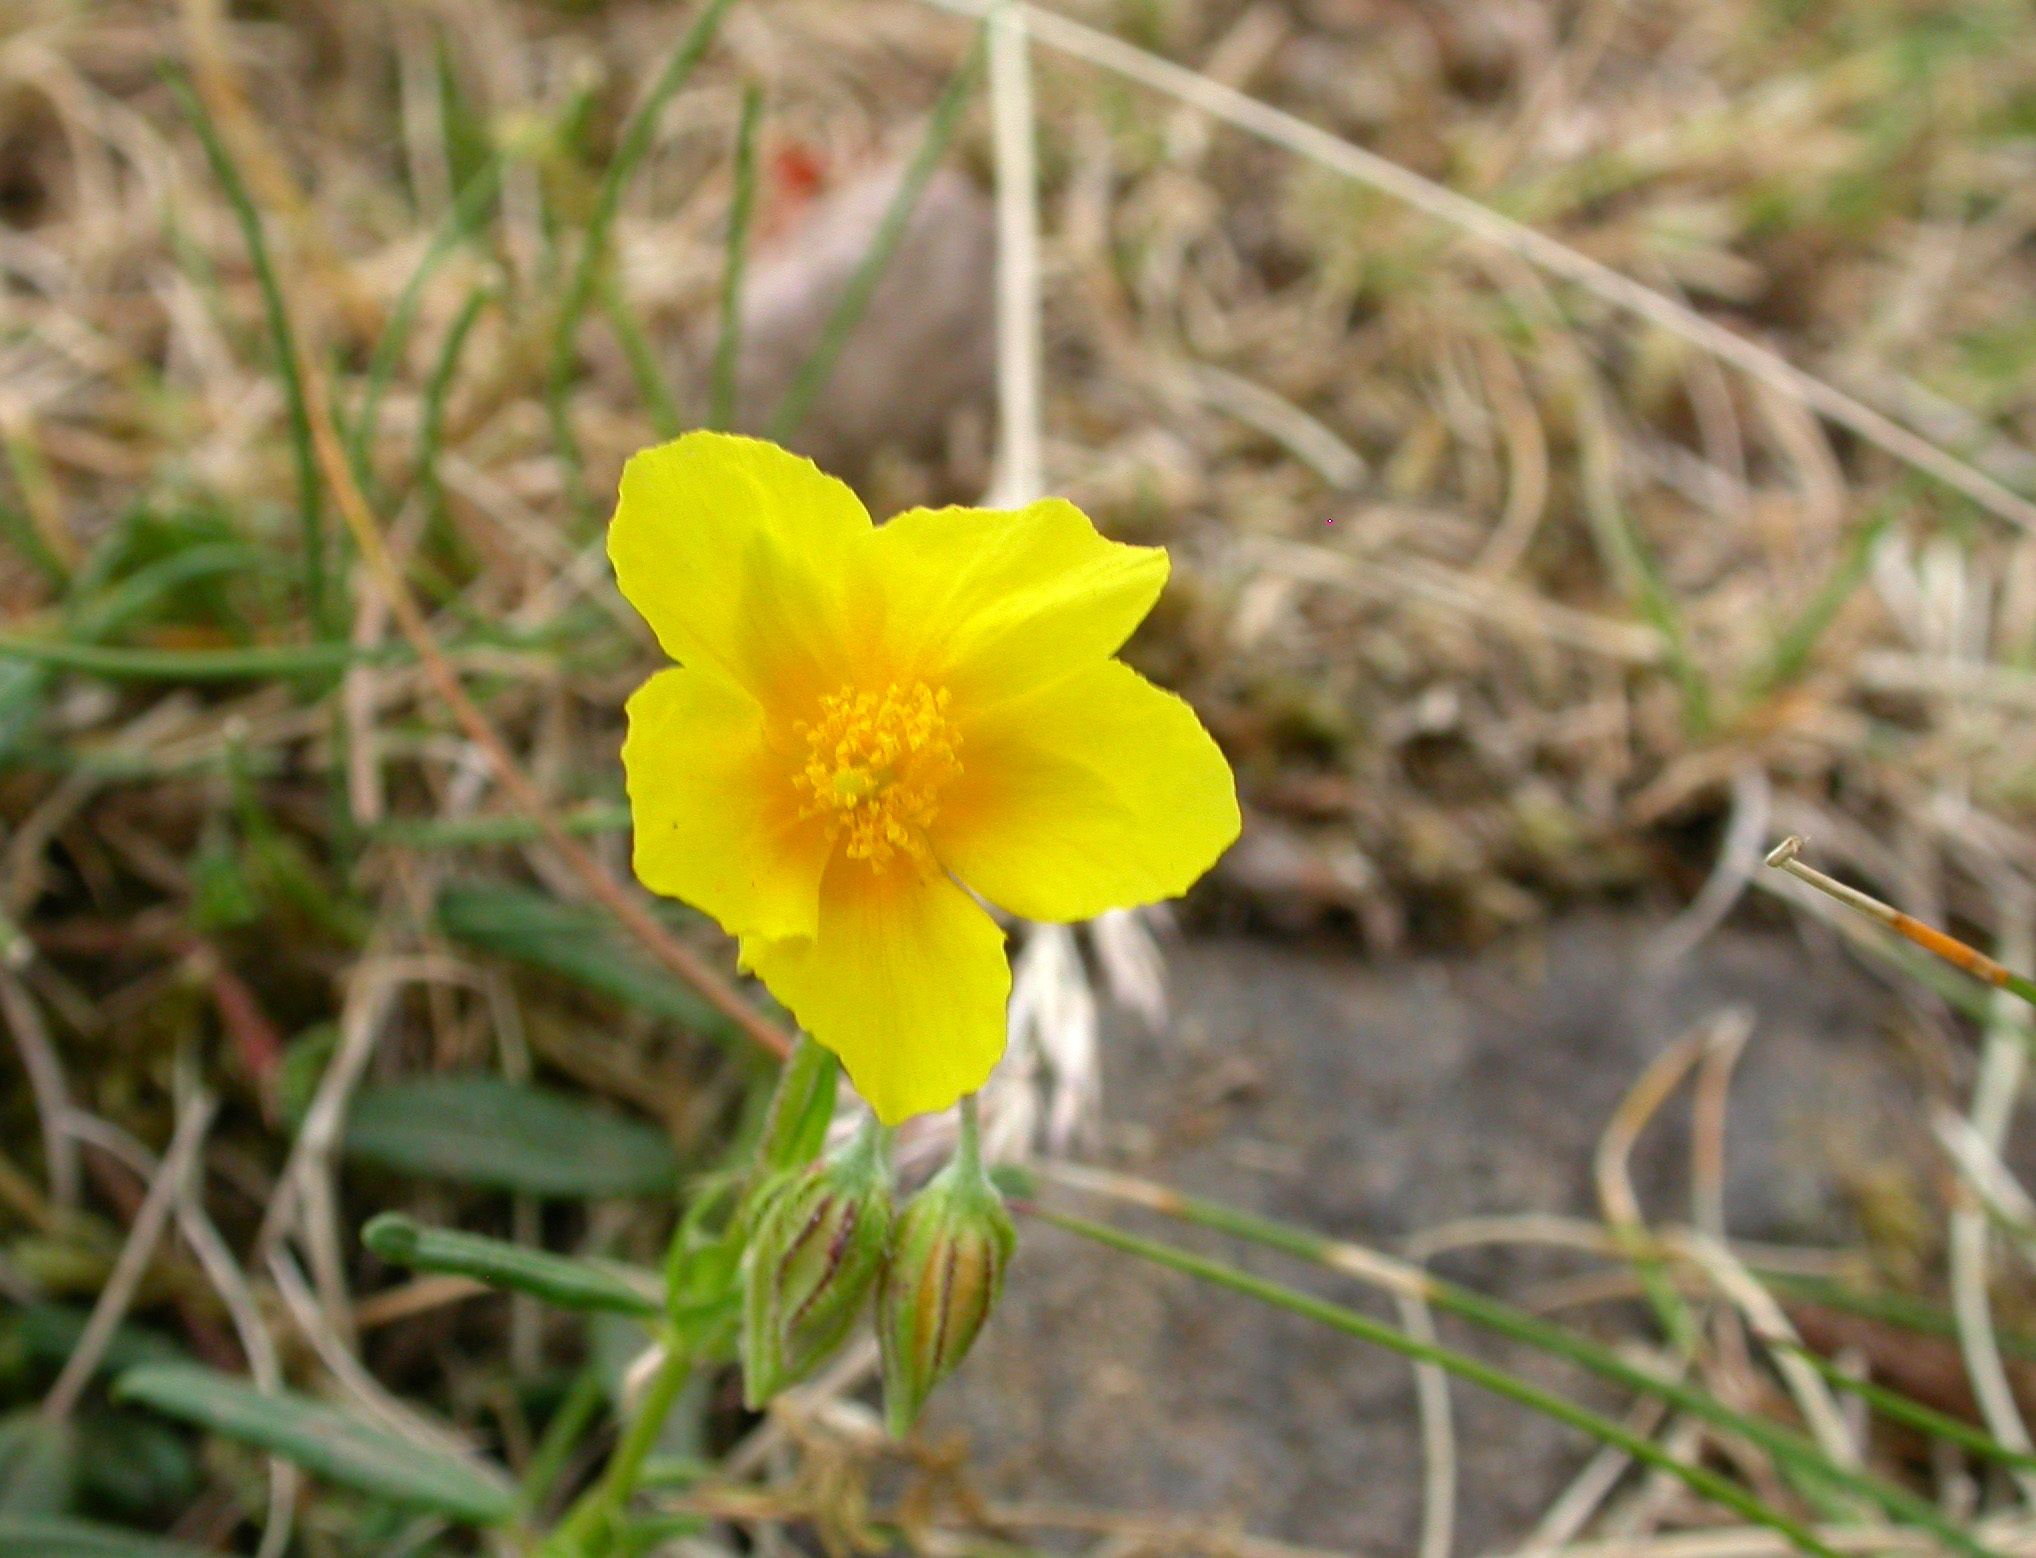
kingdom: Plantae
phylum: Tracheophyta
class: Magnoliopsida
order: Malvales
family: Cistaceae
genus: Helianthemum
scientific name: Helianthemum nummularium
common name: Common rock-rose
